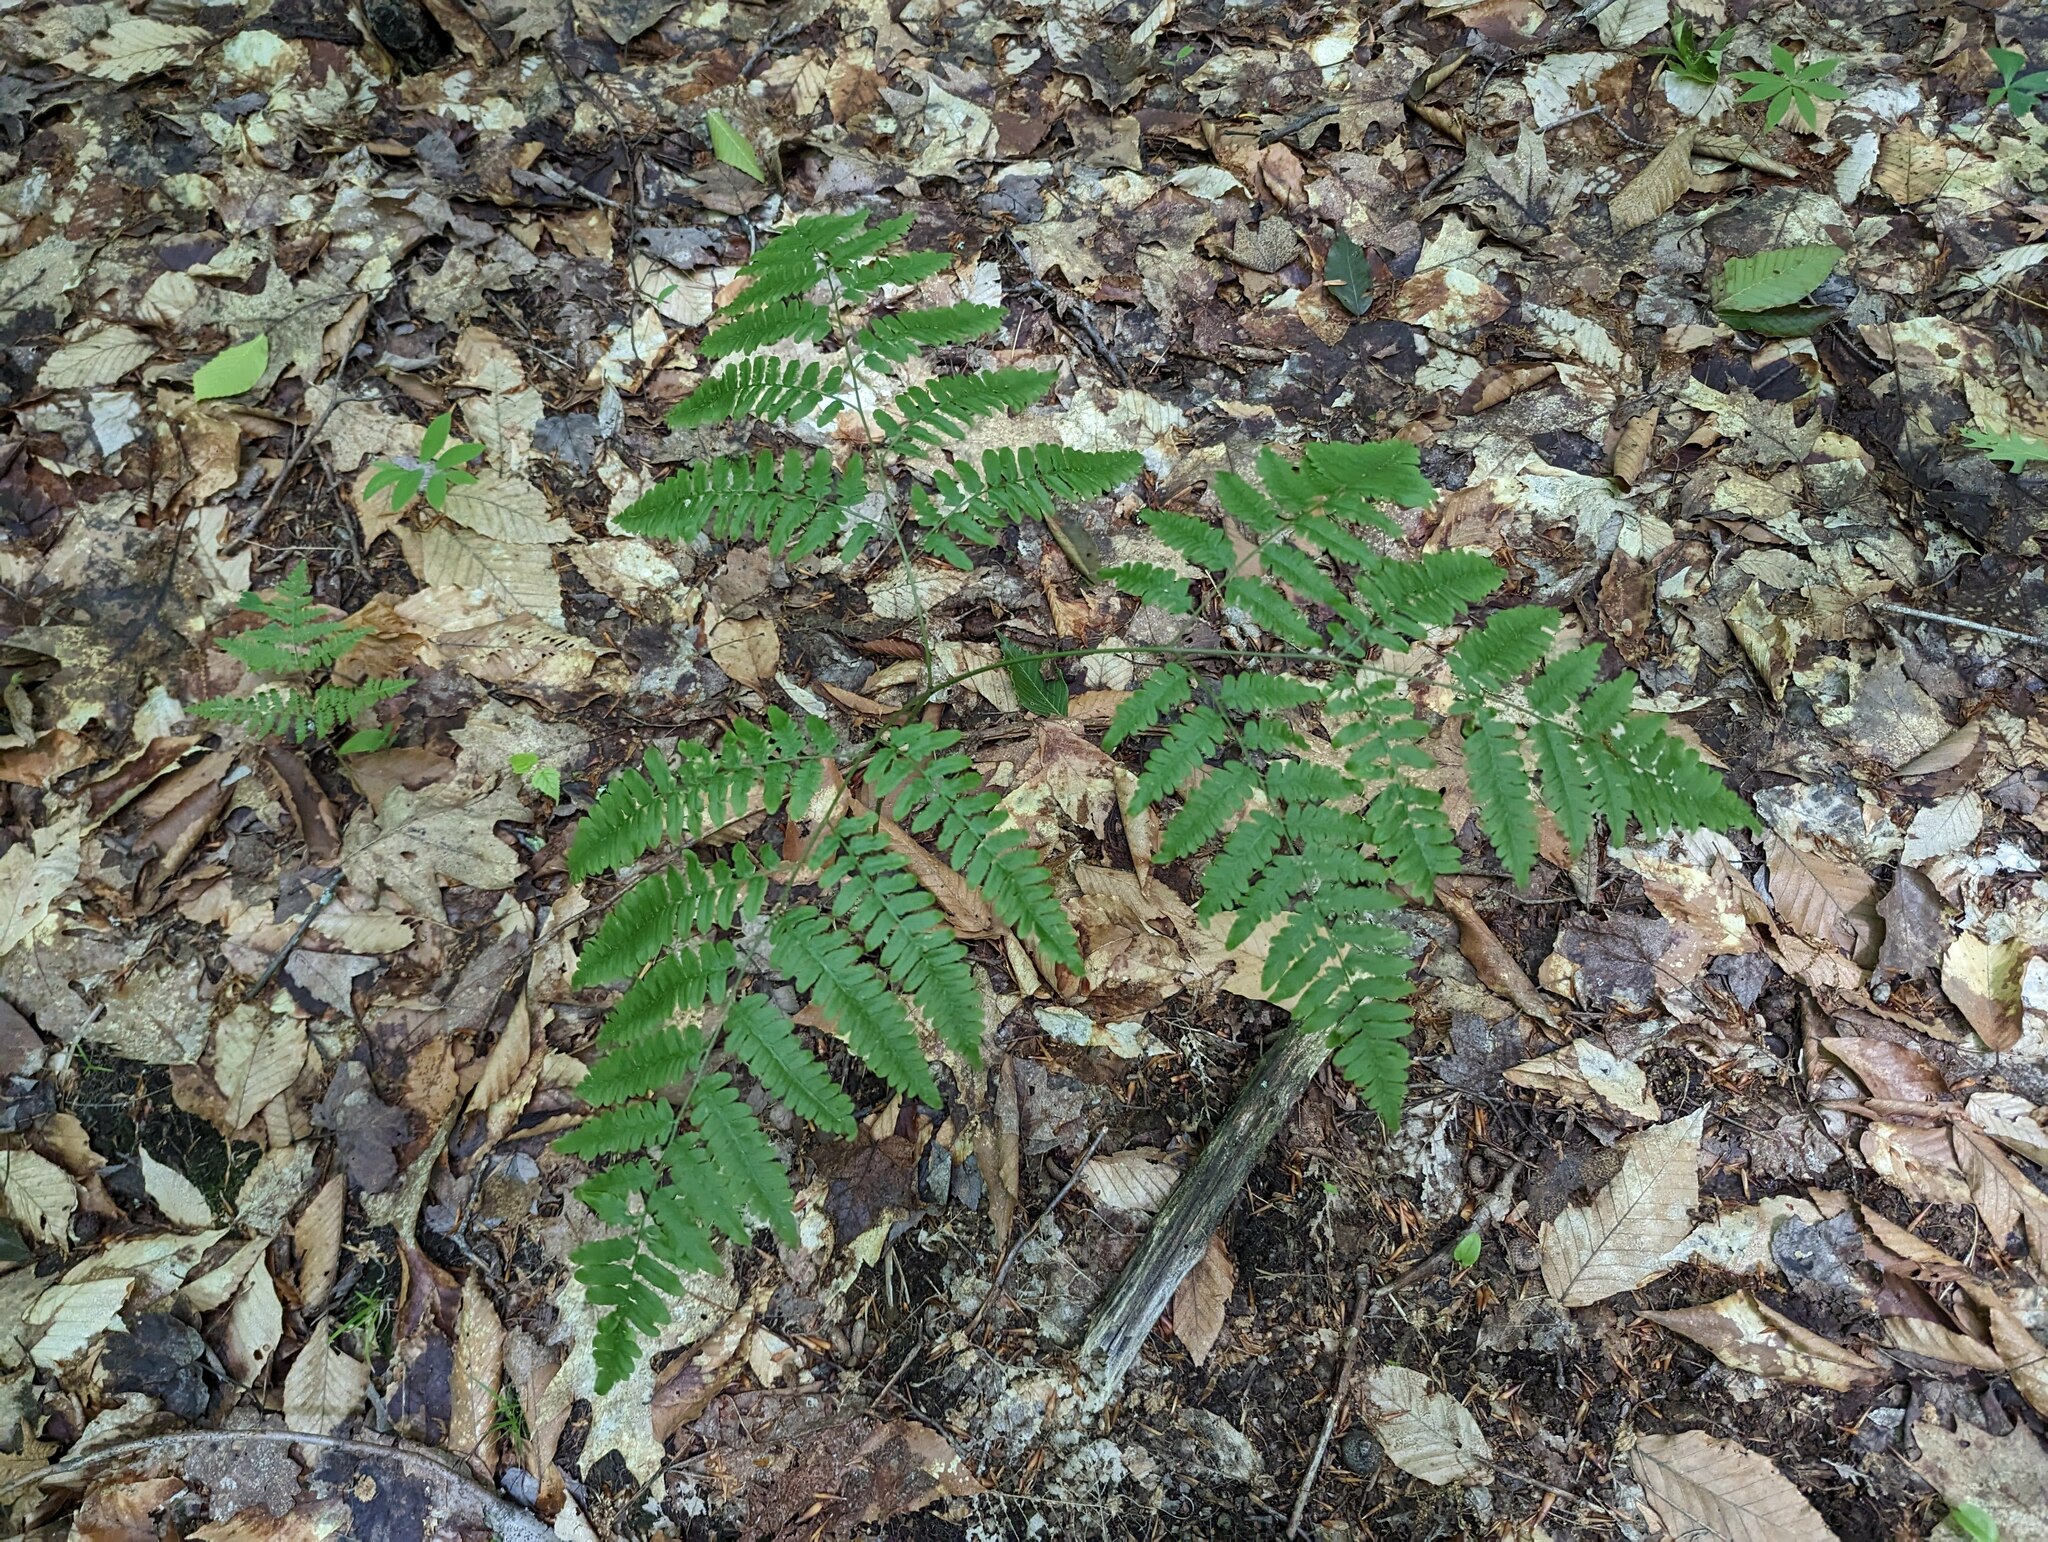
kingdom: Plantae
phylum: Tracheophyta
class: Polypodiopsida
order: Polypodiales
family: Dennstaedtiaceae
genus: Pteridium
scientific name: Pteridium aquilinum
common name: Bracken
